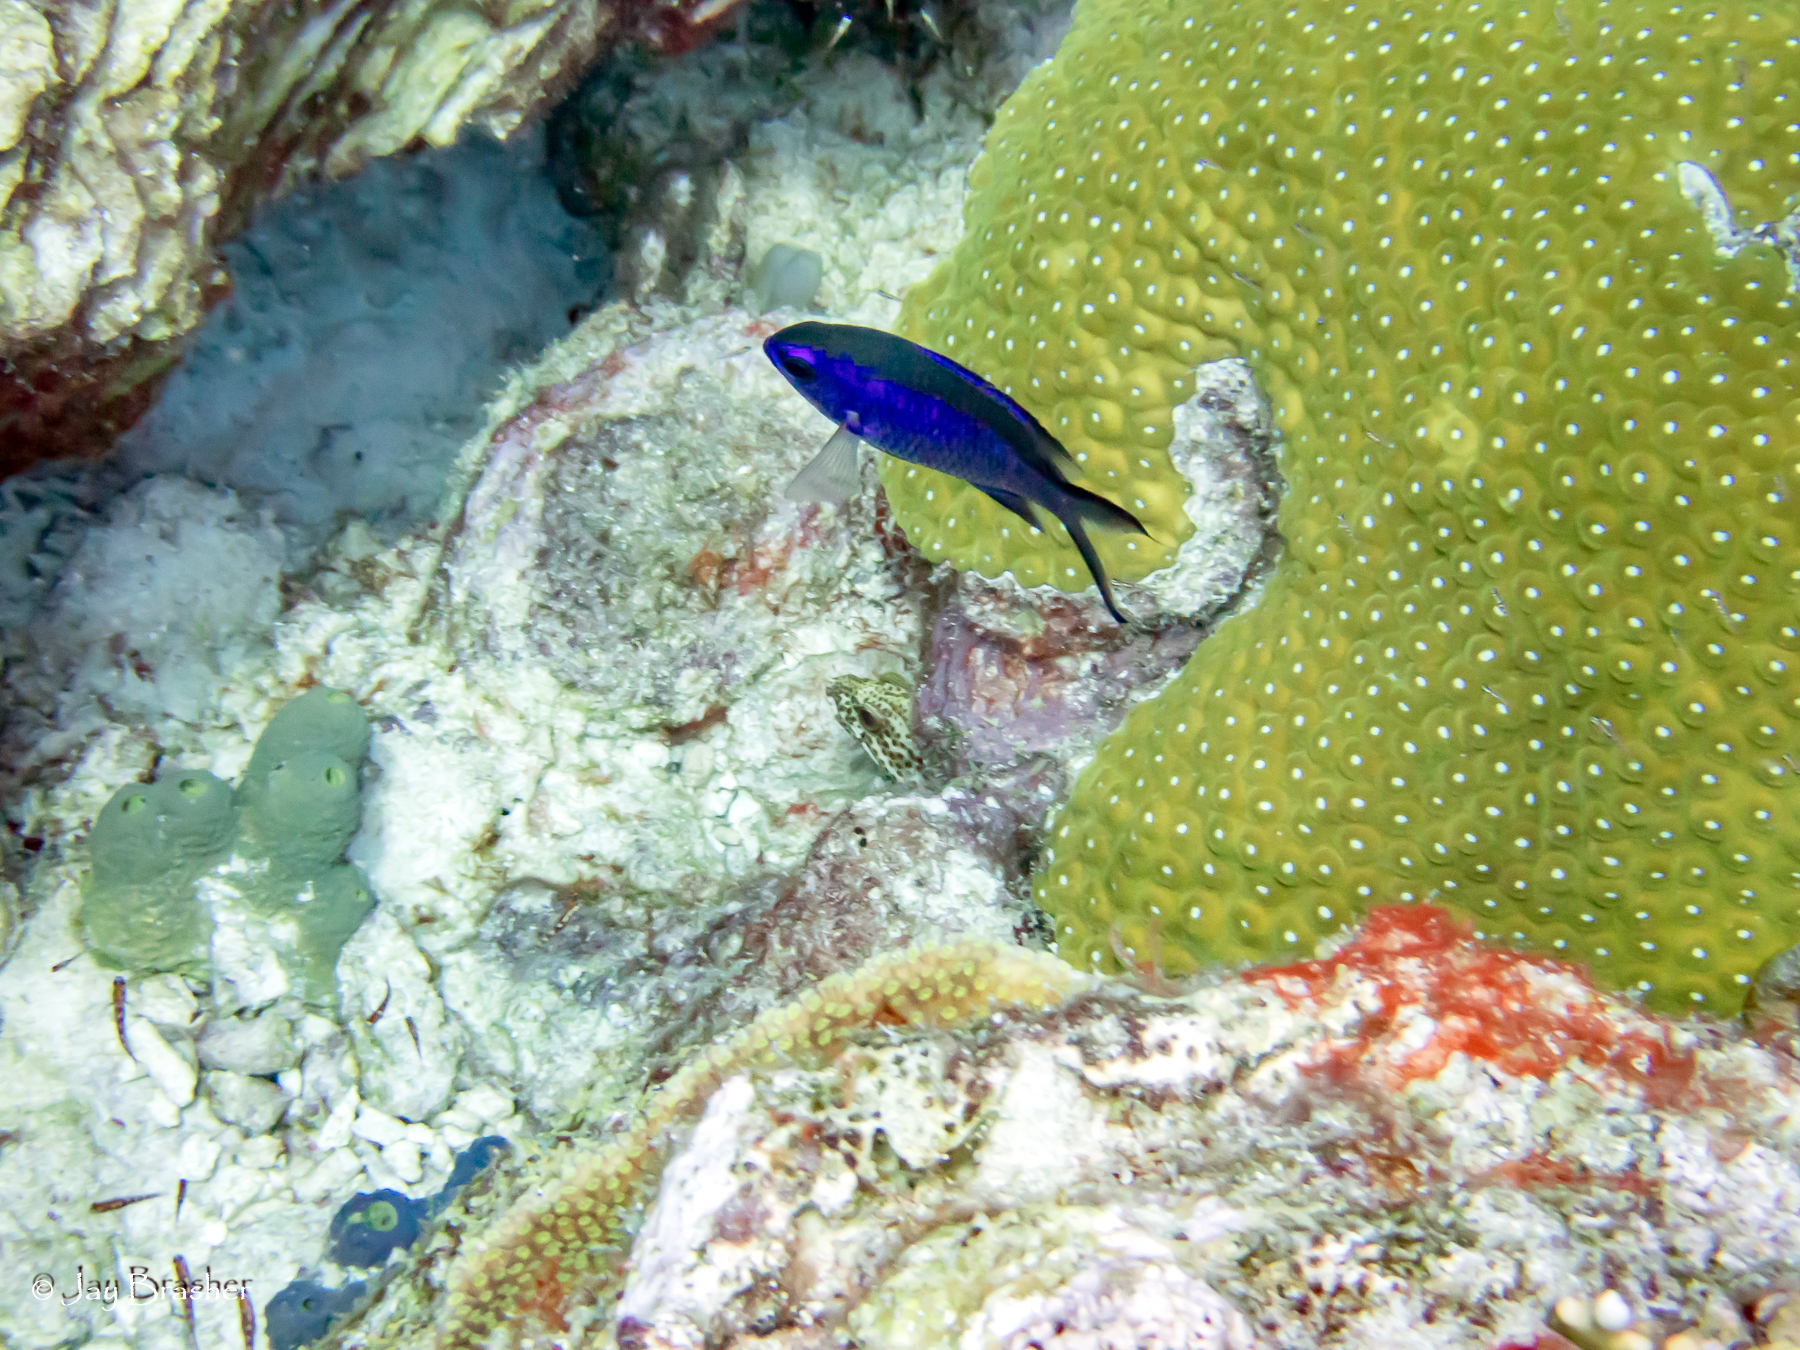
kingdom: Animalia
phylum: Chordata
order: Perciformes
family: Pomacentridae
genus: Chromis
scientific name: Chromis cyanea
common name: Blue chromis
